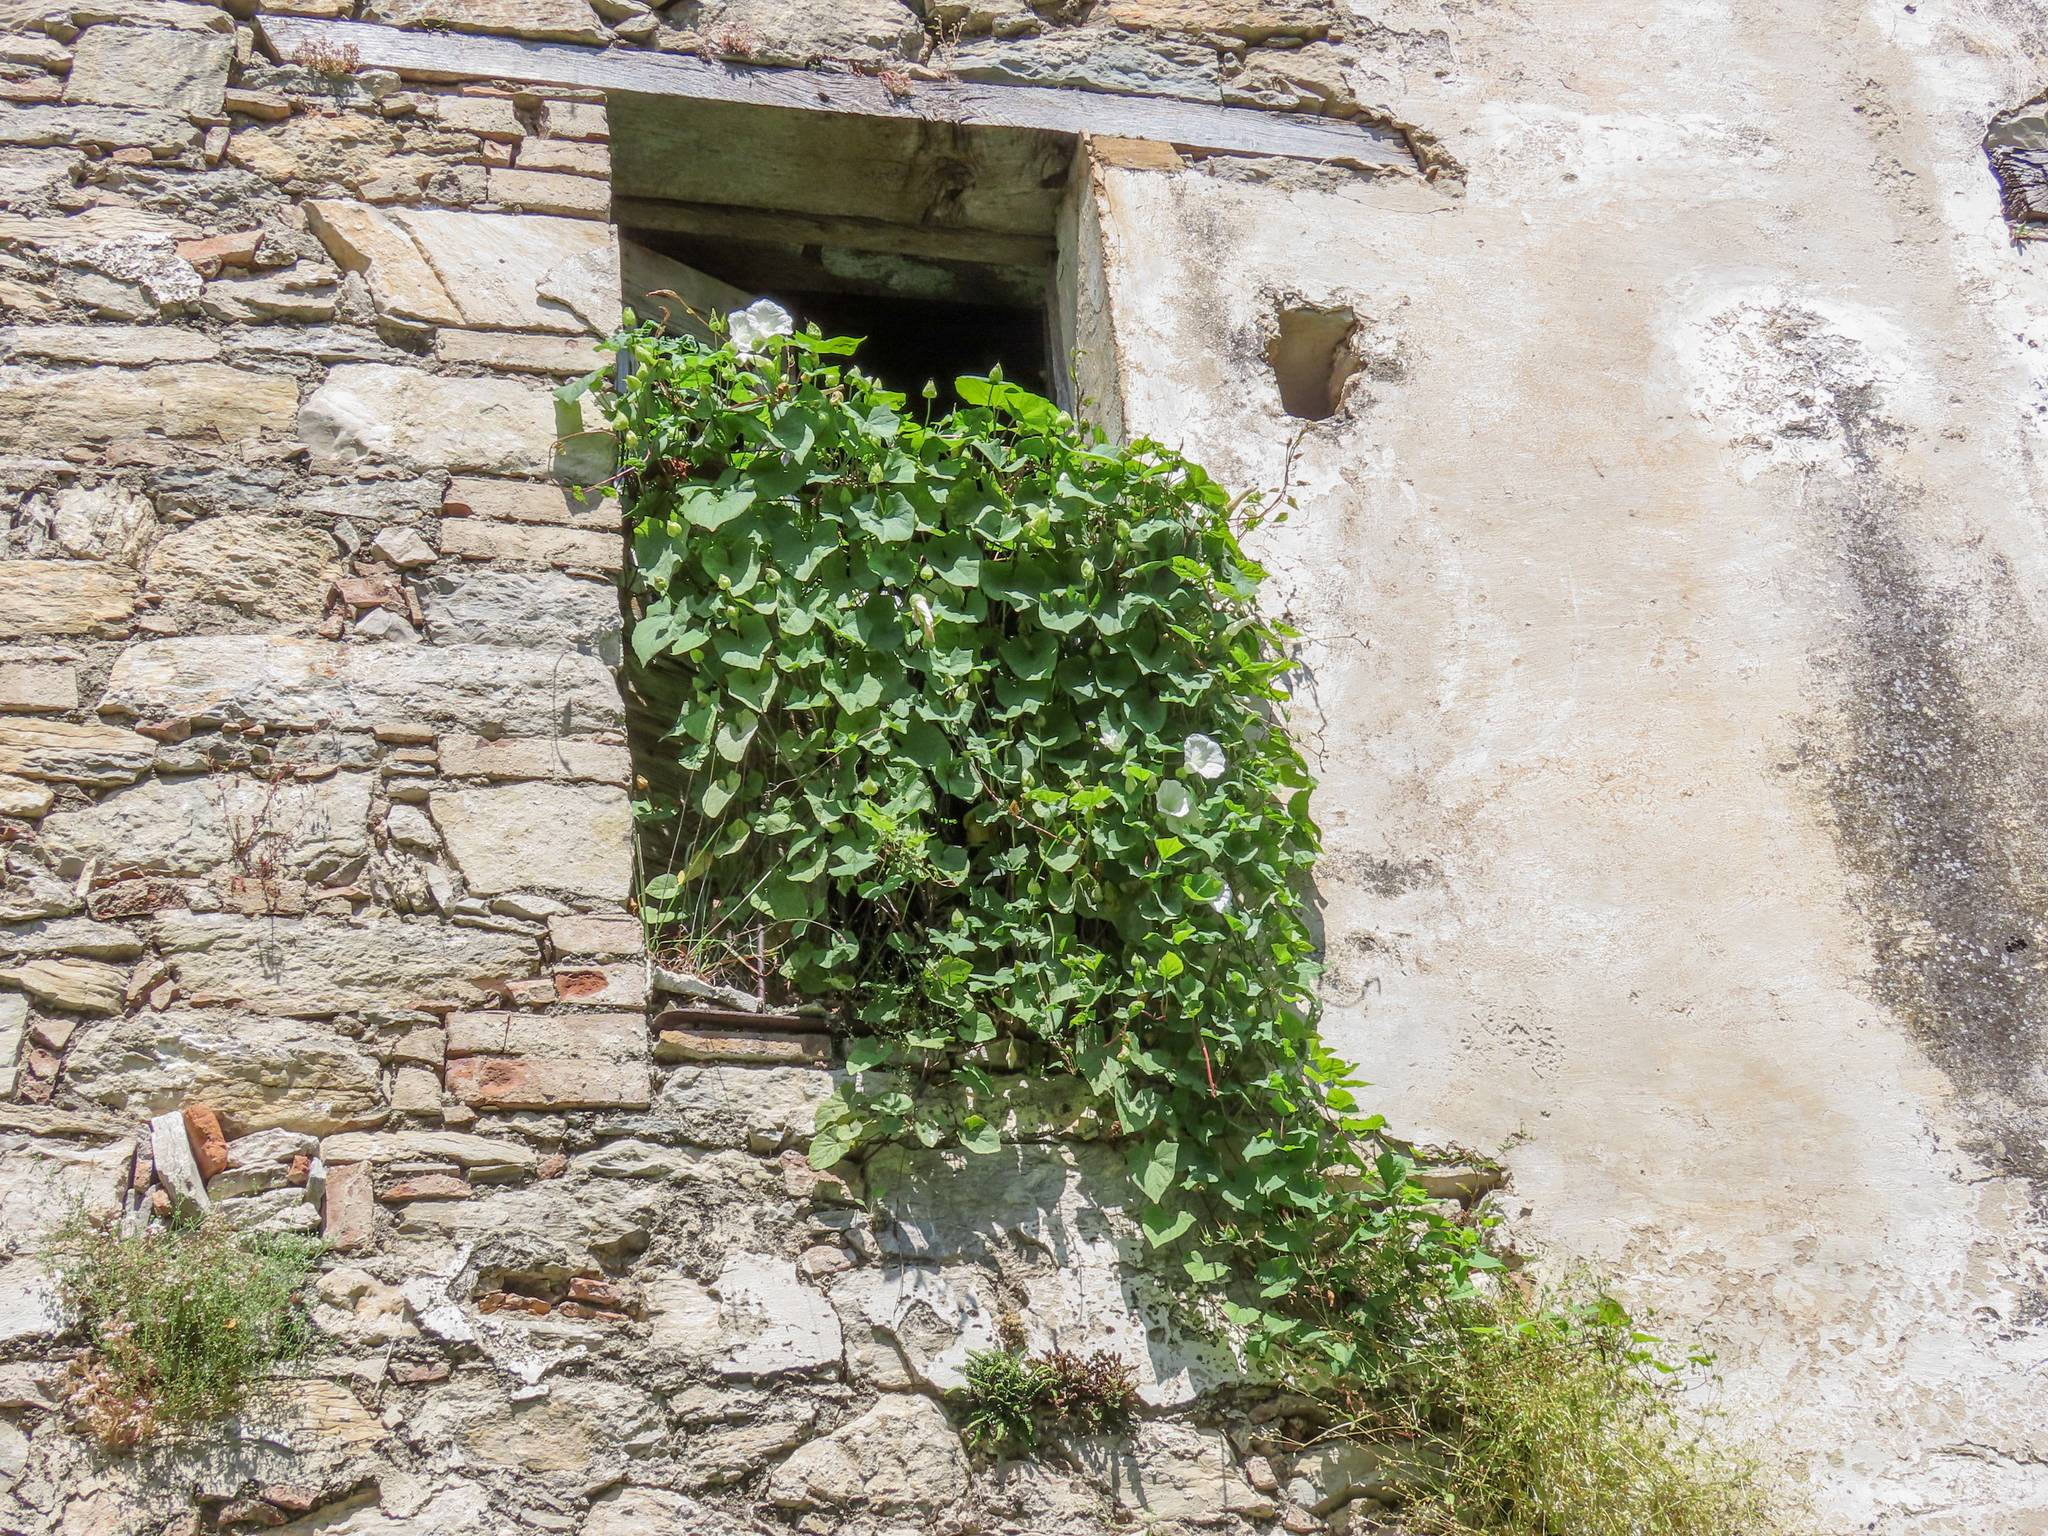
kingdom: Plantae
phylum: Tracheophyta
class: Magnoliopsida
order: Solanales
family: Convolvulaceae
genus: Calystegia
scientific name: Calystegia silvatica
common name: Large bindweed
